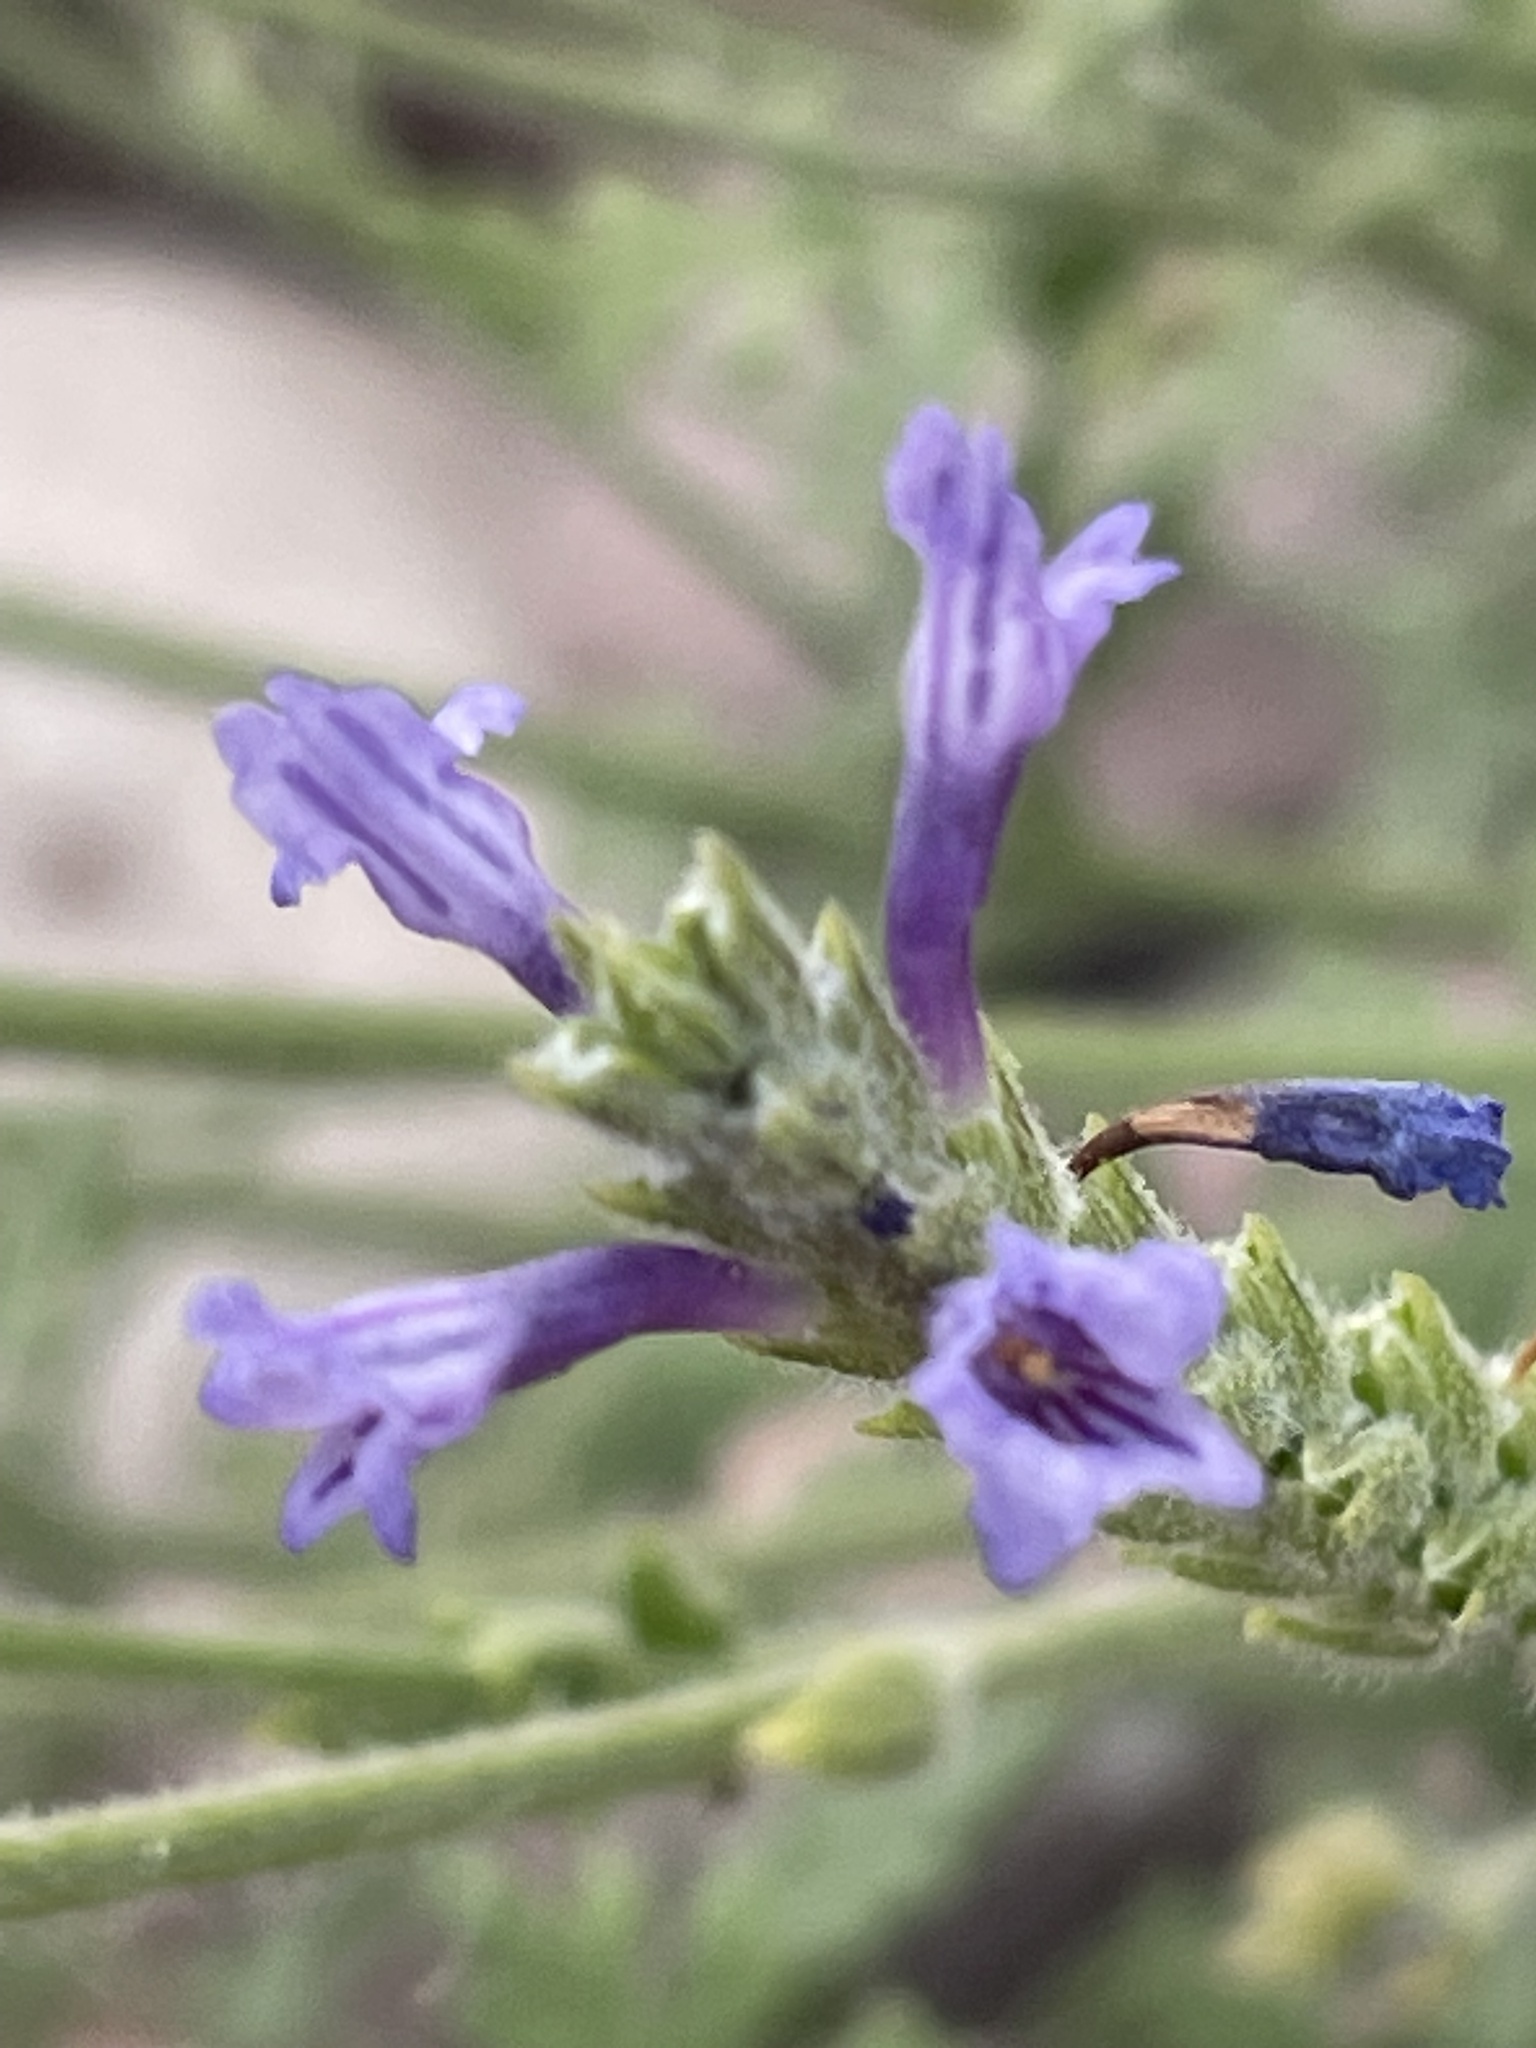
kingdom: Plantae
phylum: Tracheophyta
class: Magnoliopsida
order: Lamiales
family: Lamiaceae
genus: Lavandula
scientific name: Lavandula mairei
